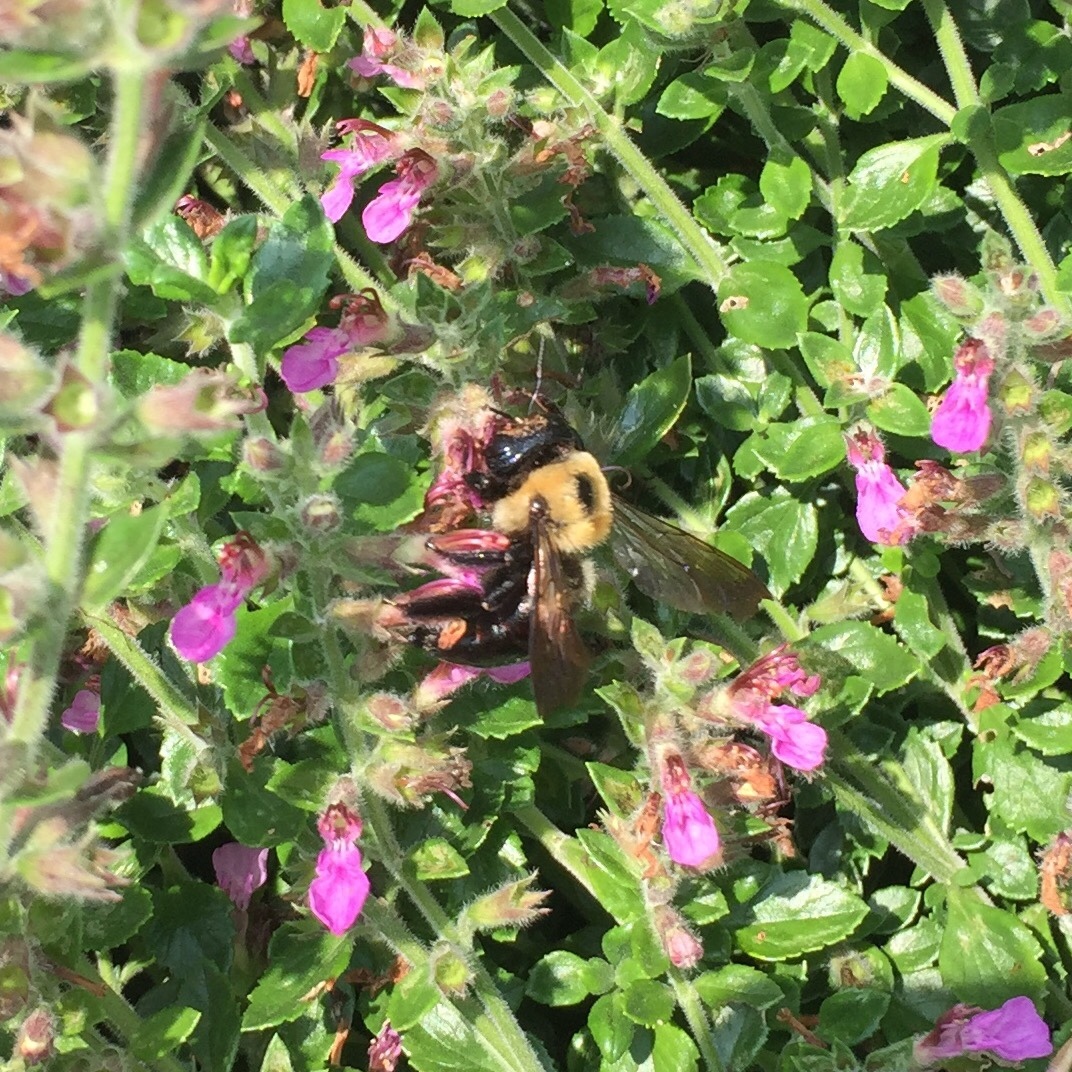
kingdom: Animalia
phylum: Arthropoda
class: Insecta
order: Hymenoptera
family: Apidae
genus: Xylocopa
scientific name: Xylocopa virginica
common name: Carpenter bee
